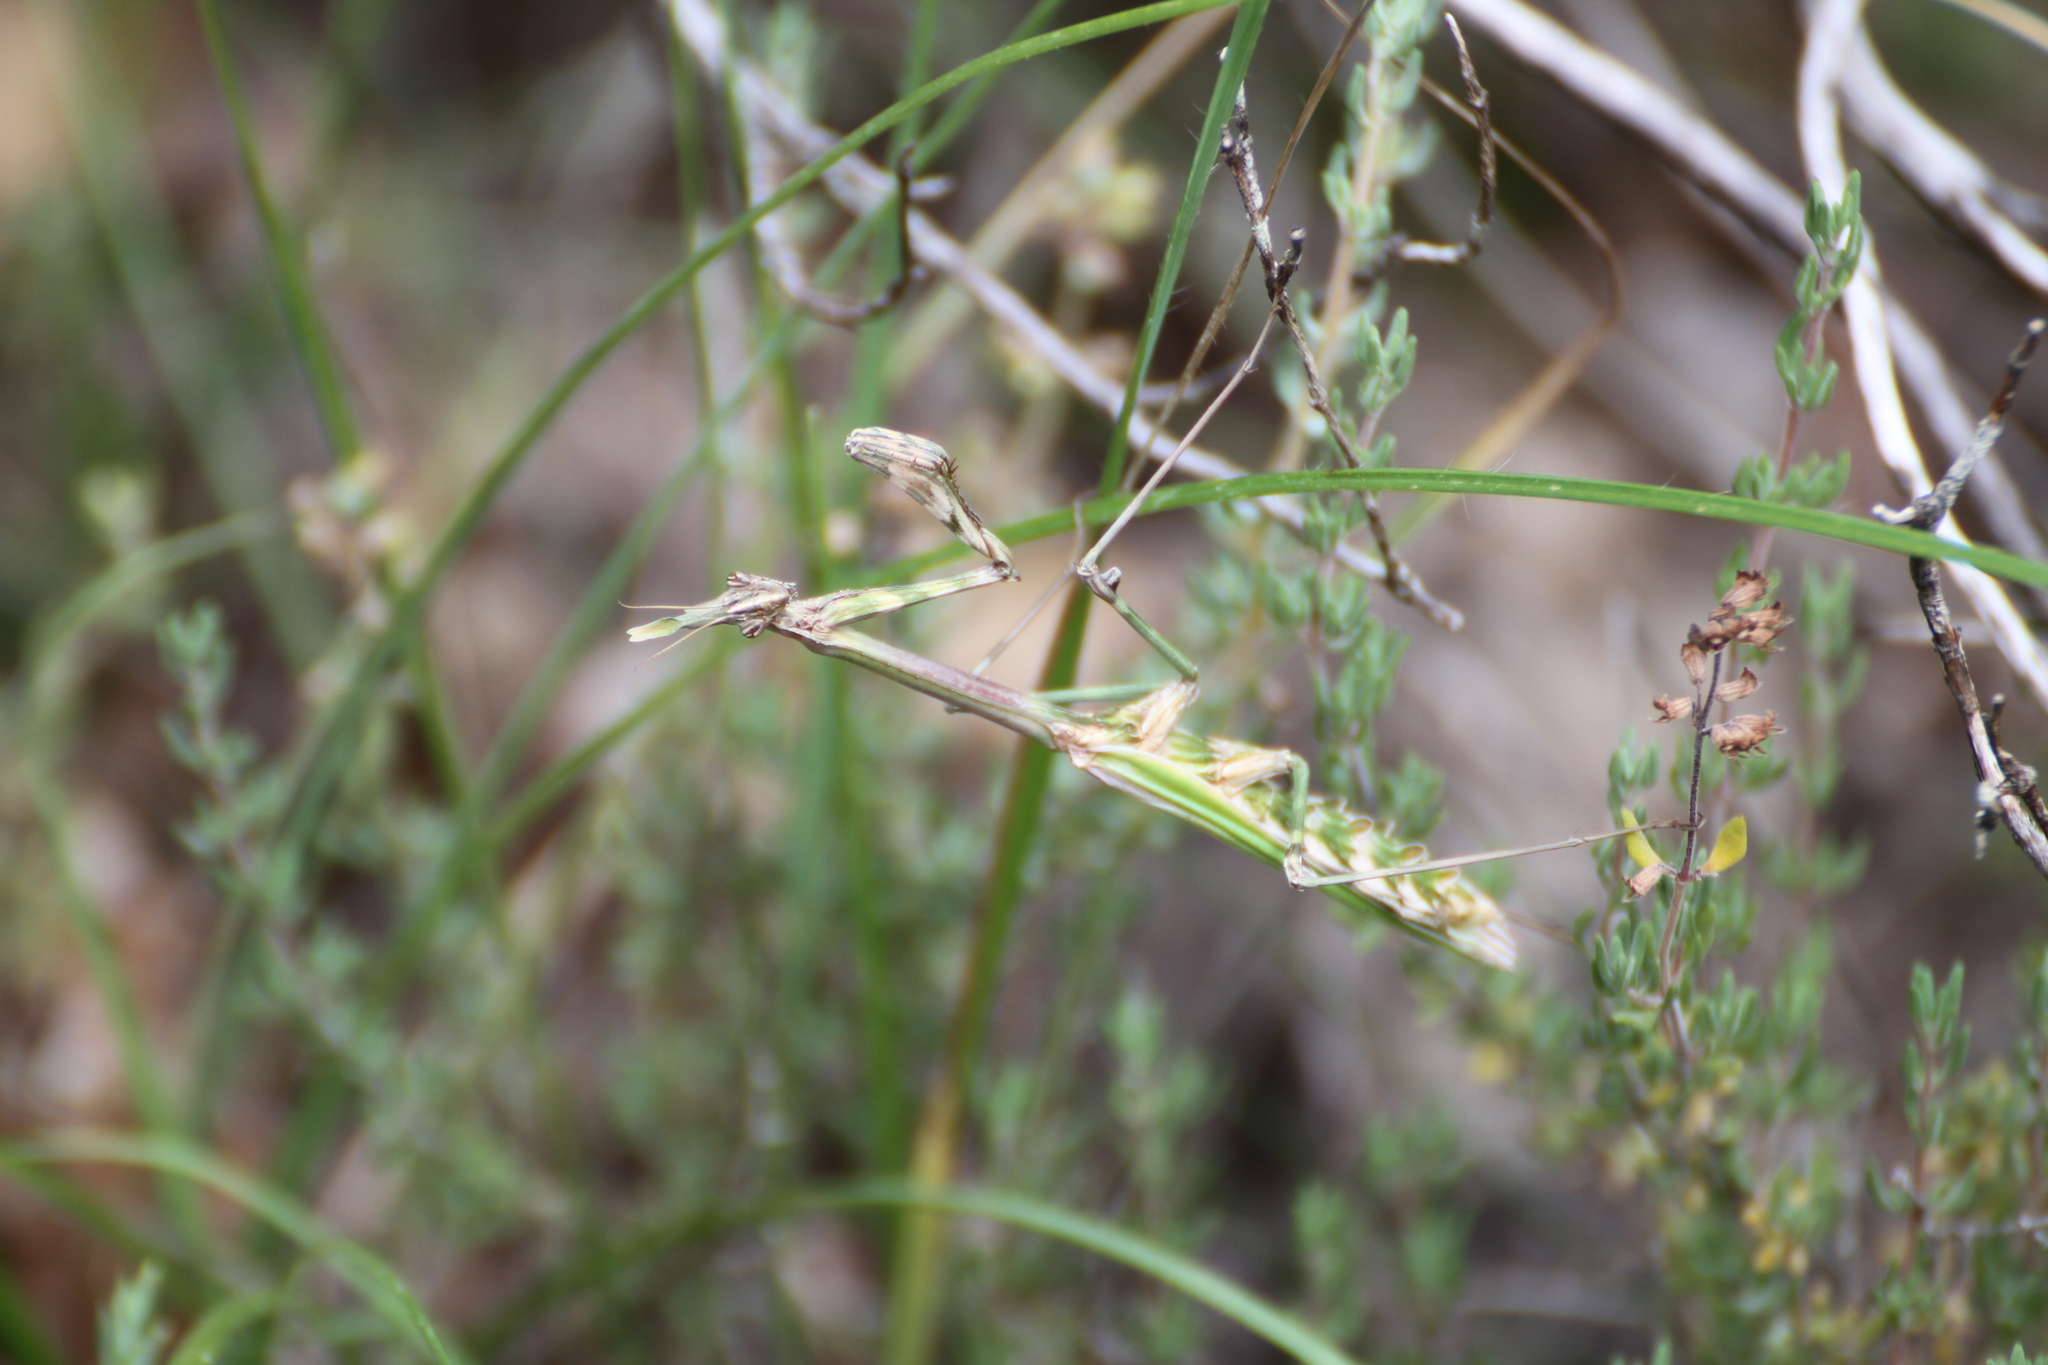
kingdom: Animalia
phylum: Arthropoda
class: Insecta
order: Mantodea
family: Empusidae
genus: Empusa
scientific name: Empusa pennata
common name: Conehead mantis
